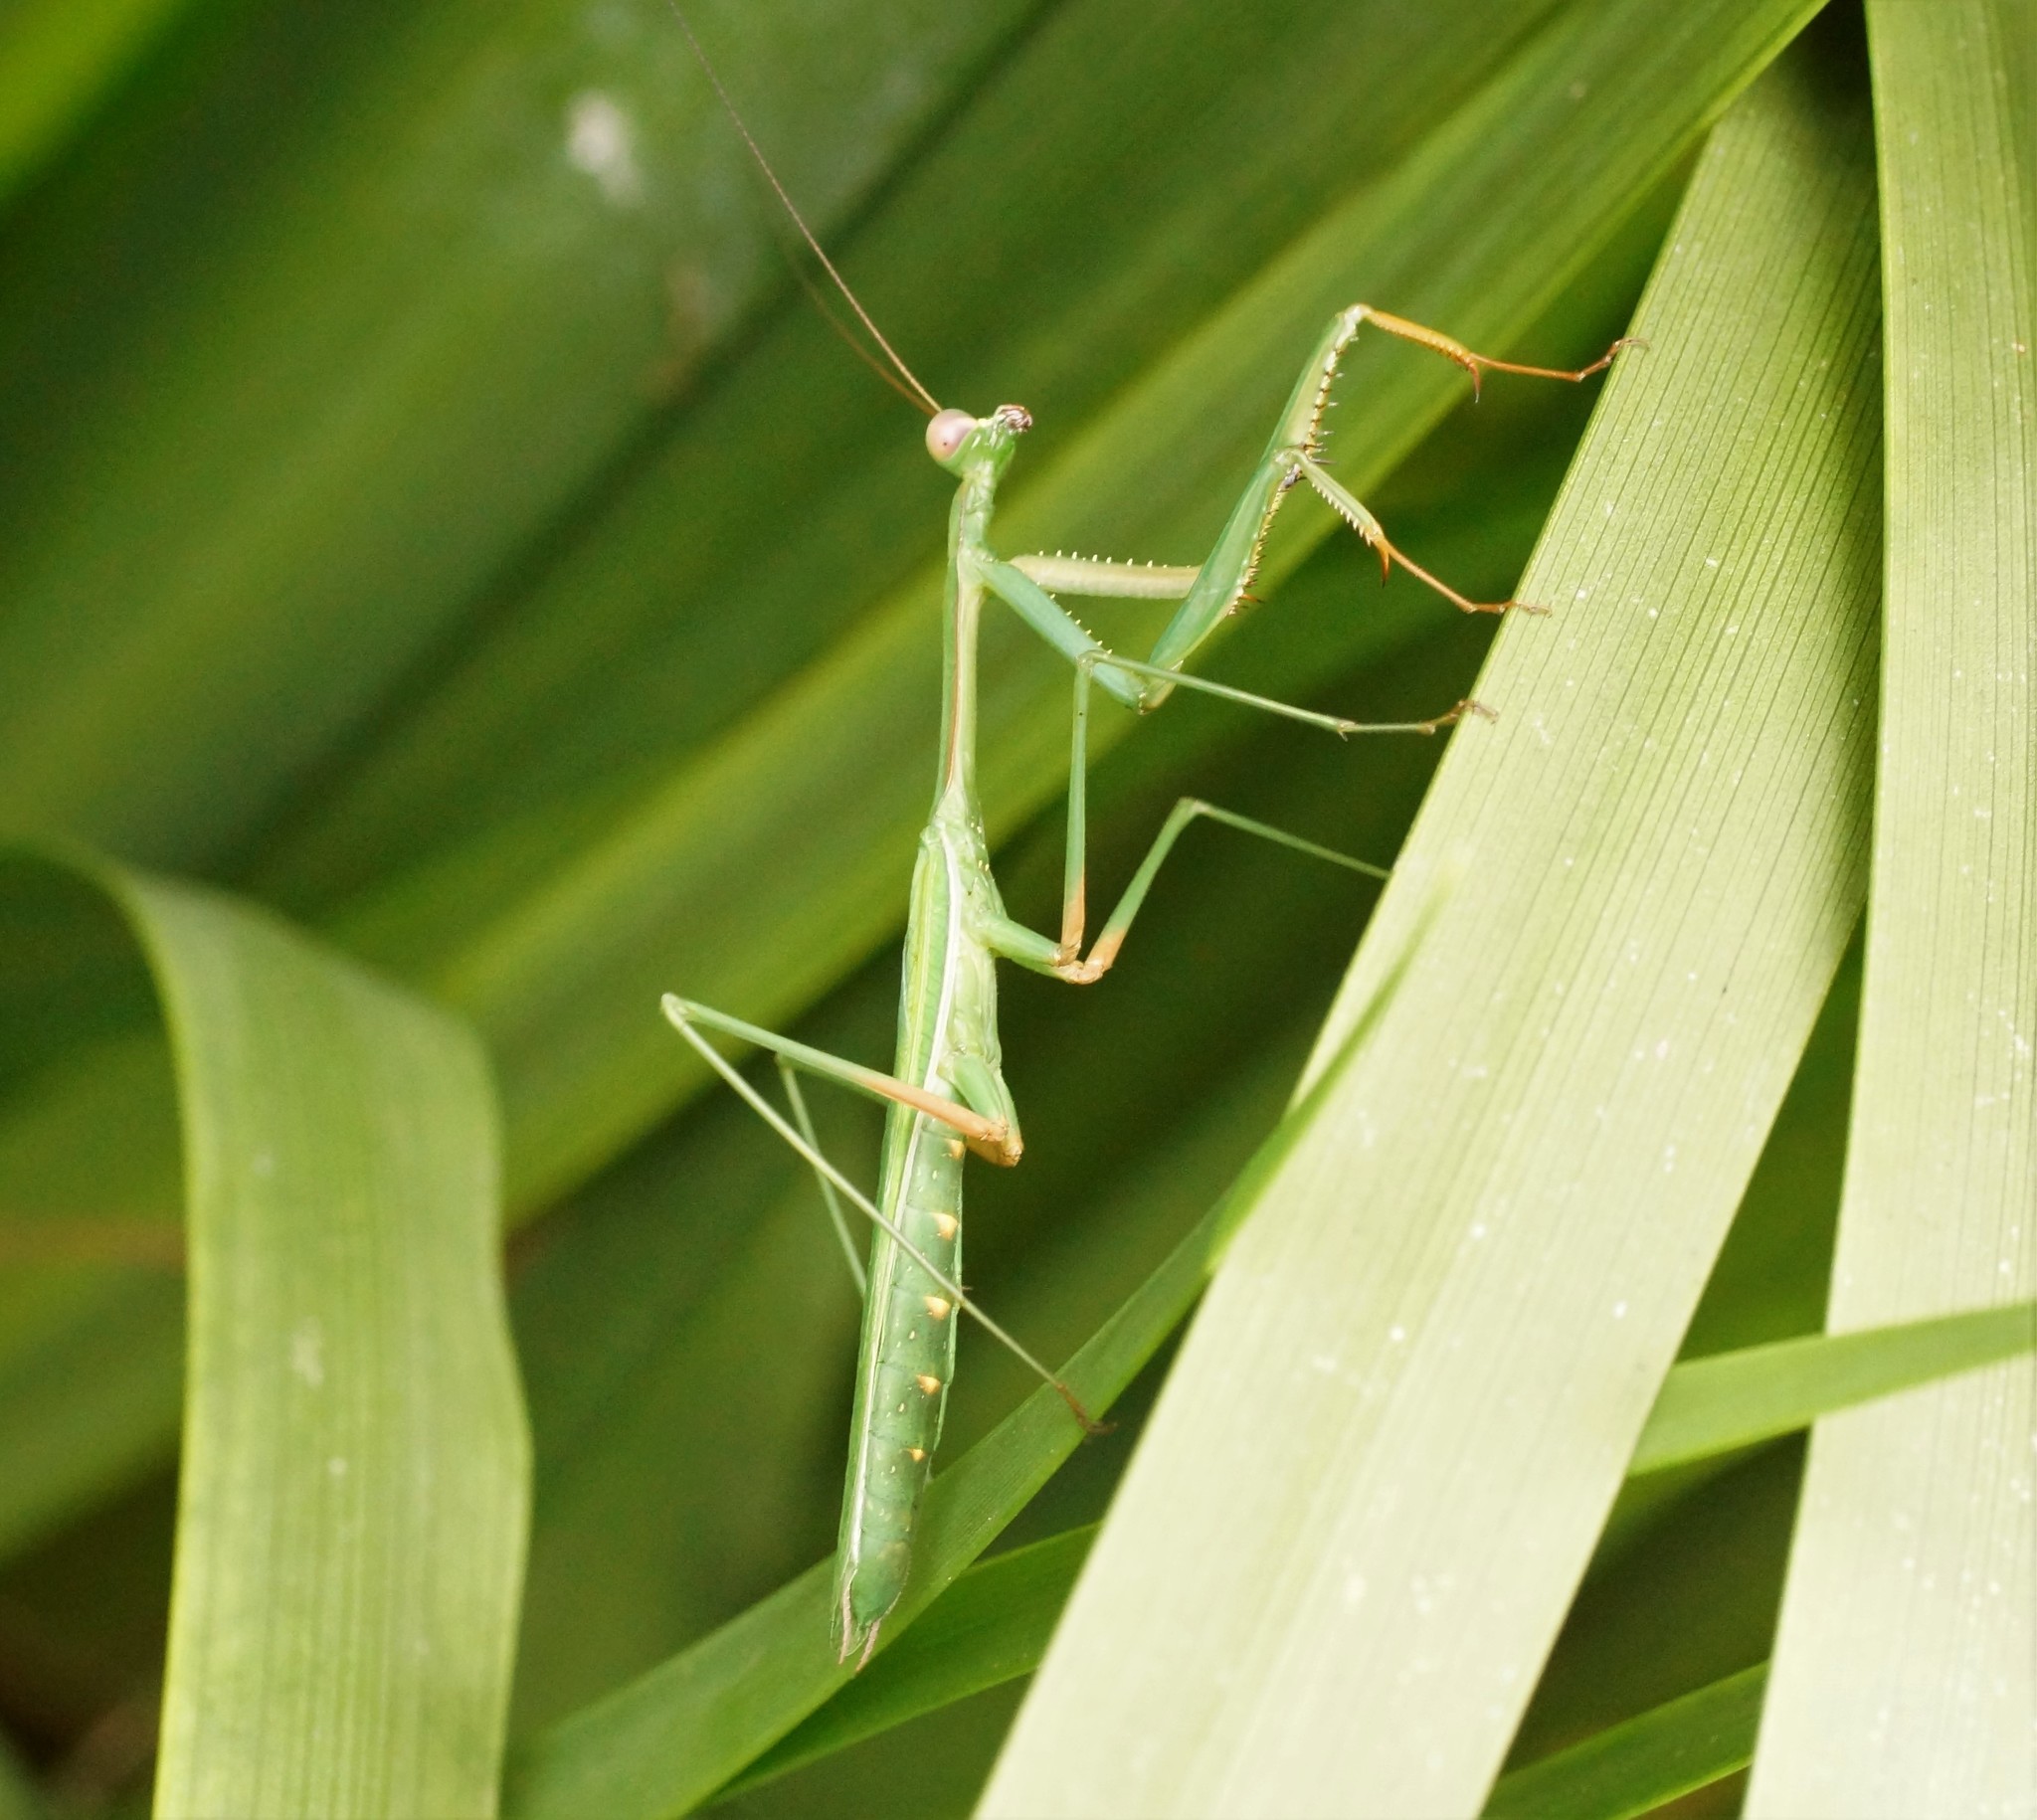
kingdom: Animalia
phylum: Arthropoda
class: Insecta
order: Mantodea
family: Mantidae
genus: Pseudomantis
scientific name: Pseudomantis albofimbriata
